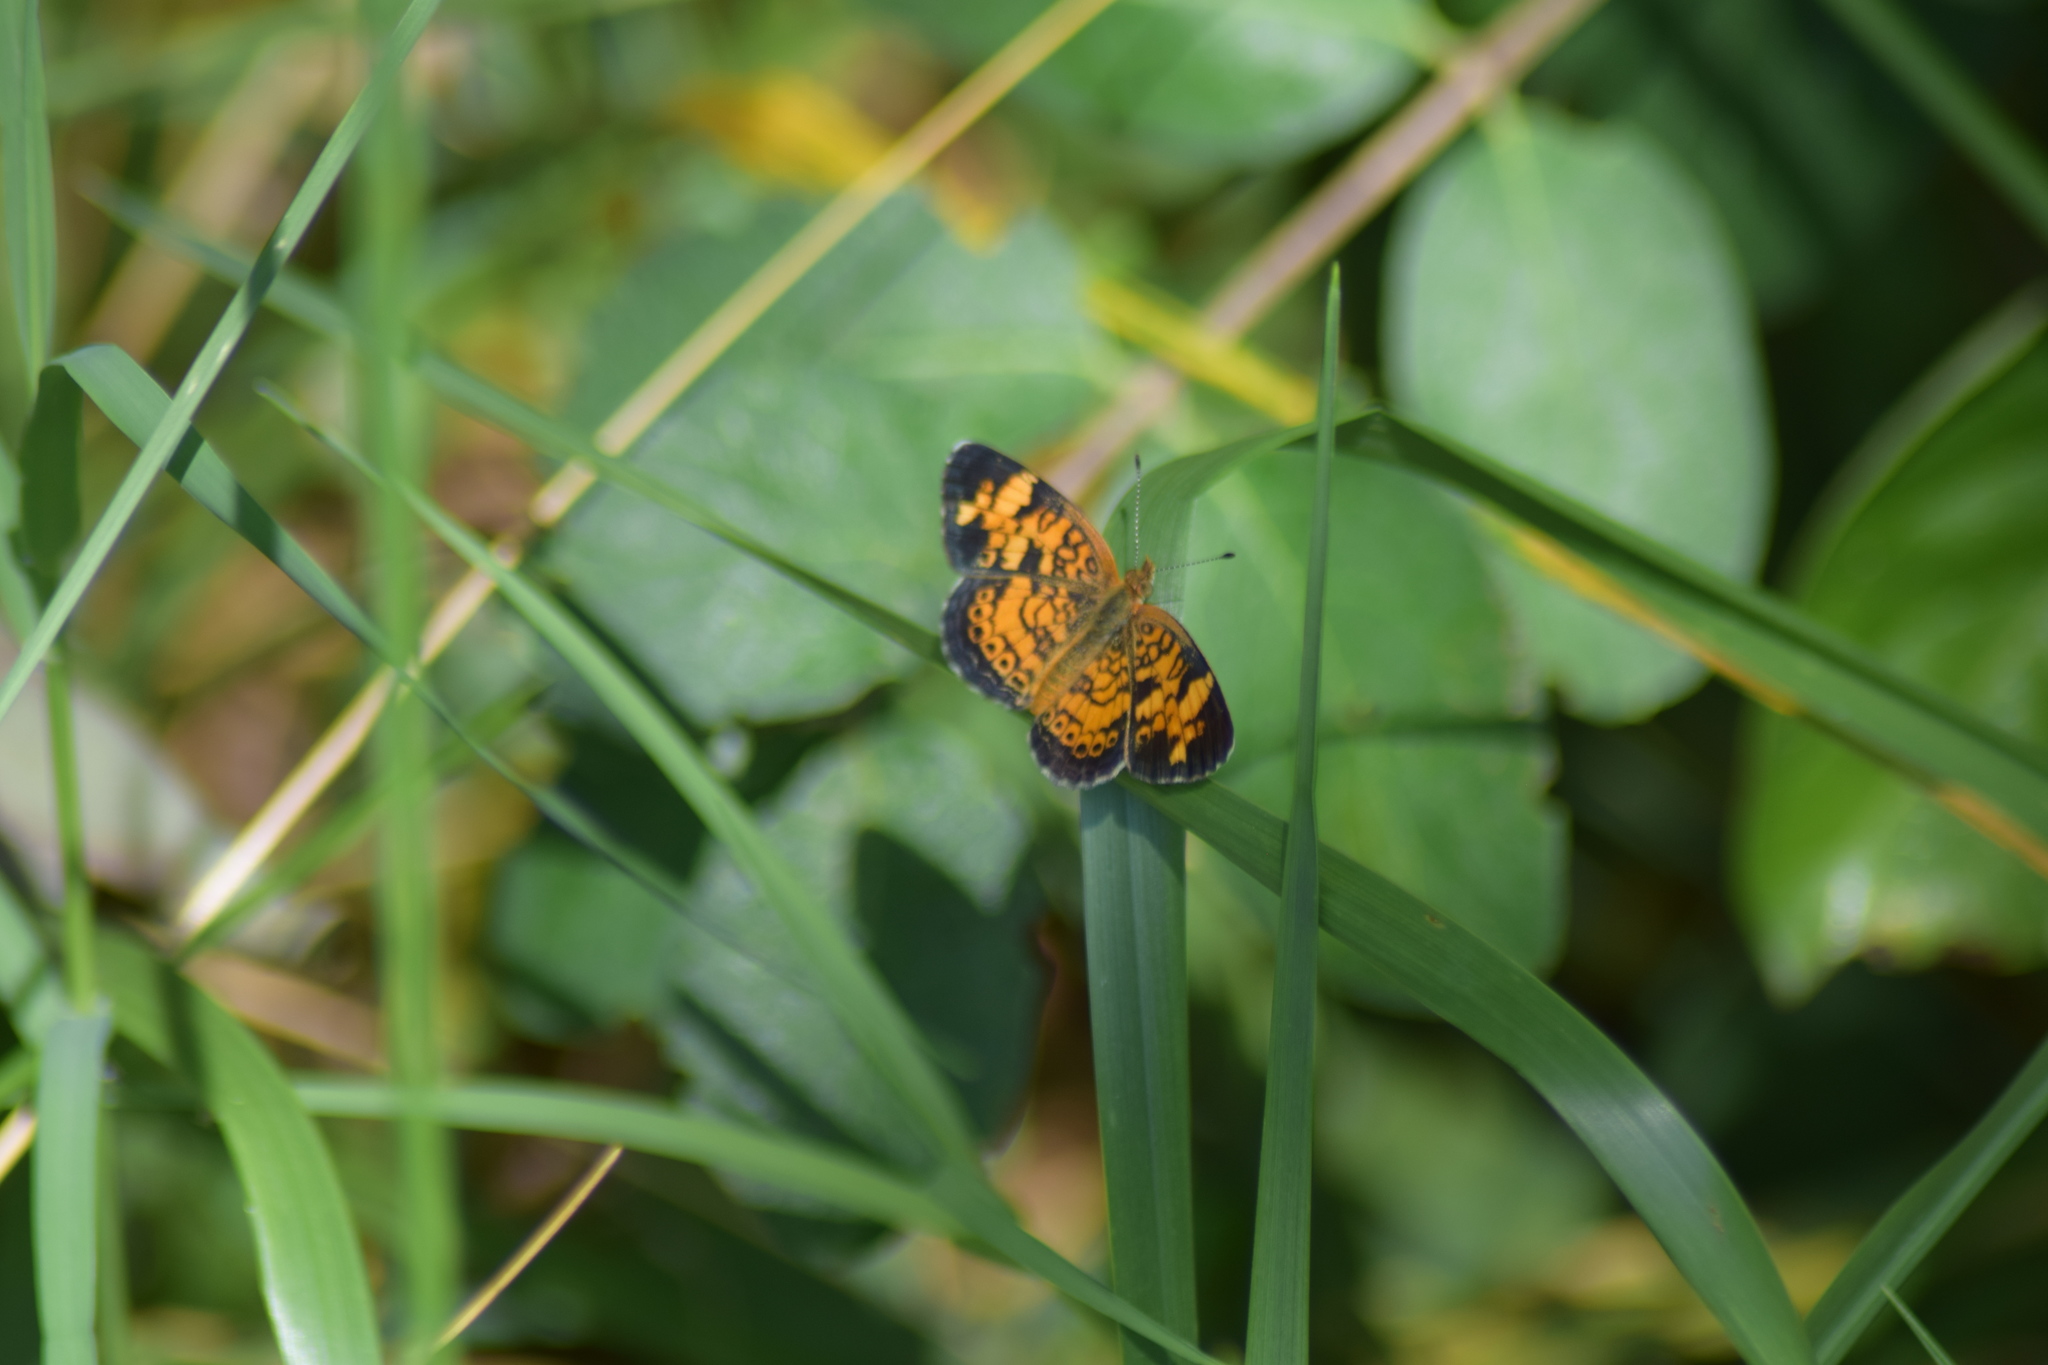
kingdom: Animalia
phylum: Arthropoda
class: Insecta
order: Lepidoptera
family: Nymphalidae
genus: Phyciodes
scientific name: Phyciodes tharos
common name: Pearl crescent
